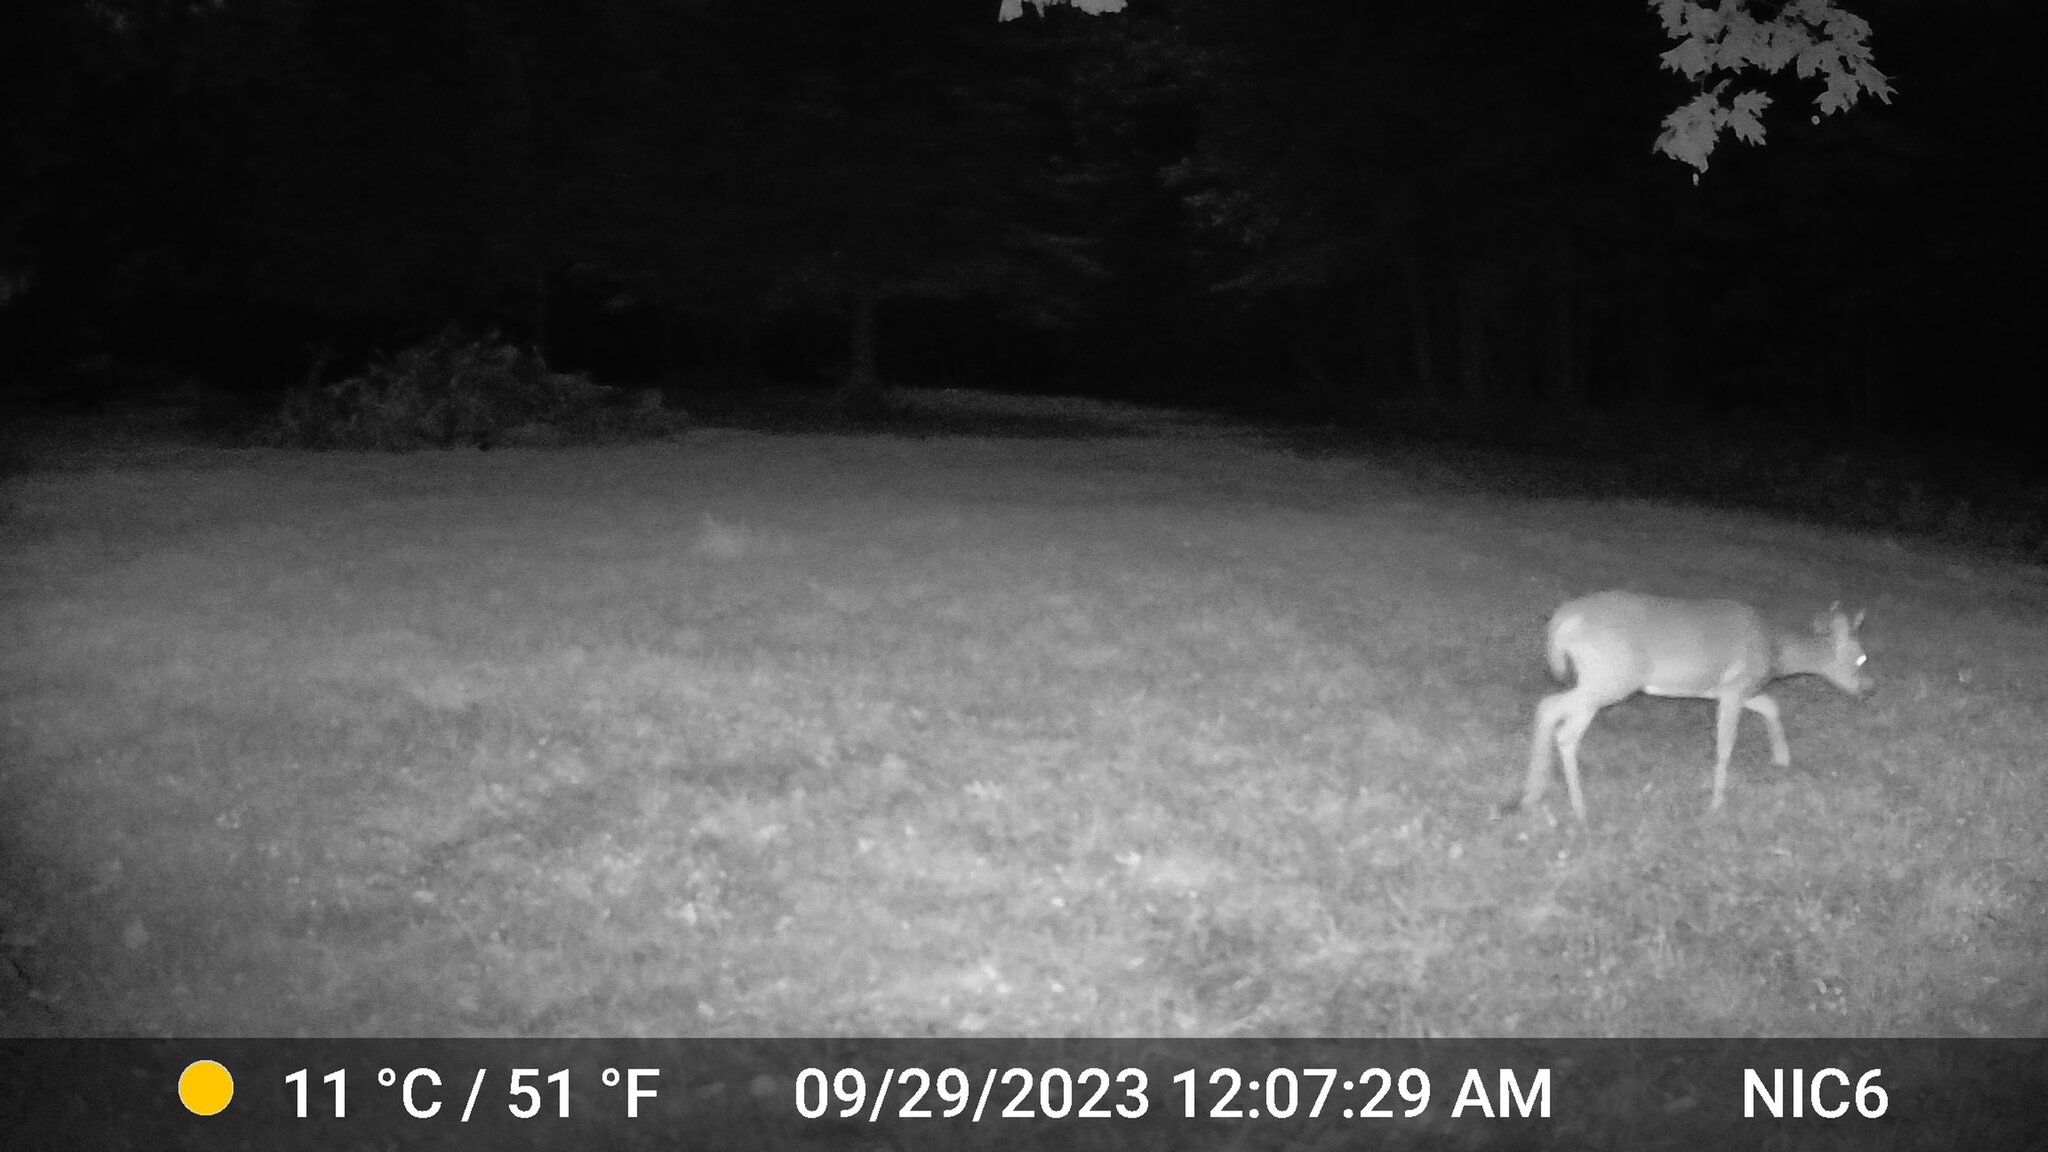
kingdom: Animalia
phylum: Chordata
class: Mammalia
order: Artiodactyla
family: Cervidae
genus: Odocoileus
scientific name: Odocoileus virginianus
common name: White-tailed deer
